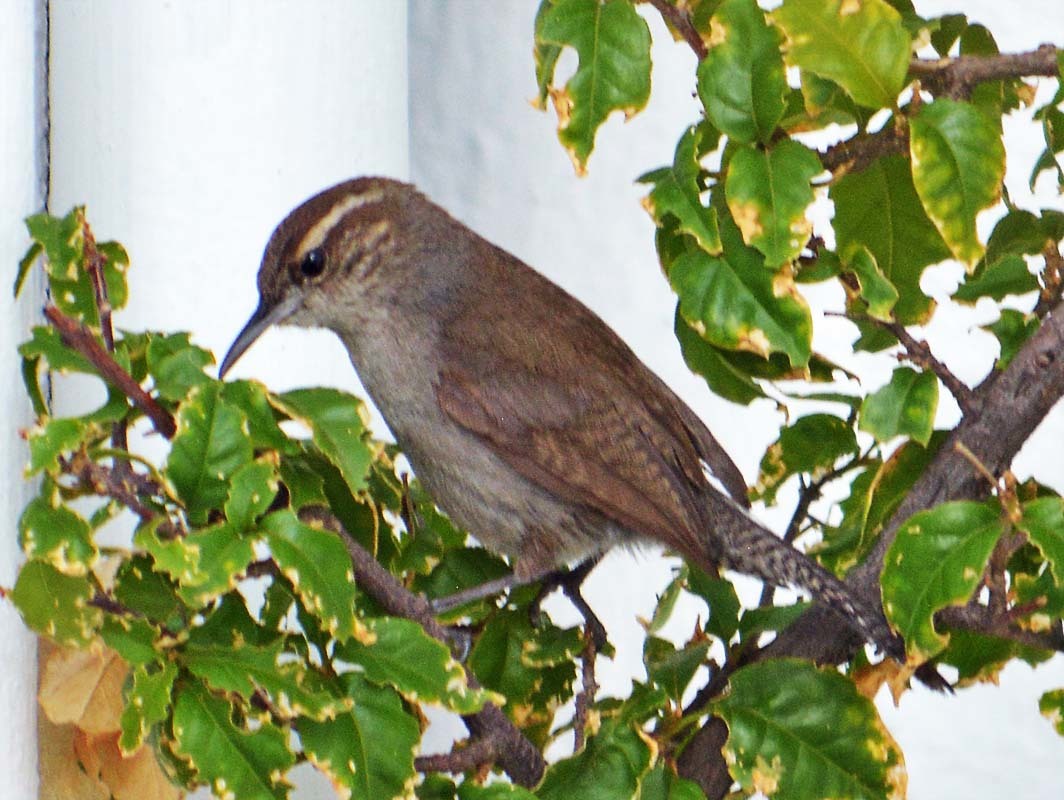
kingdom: Animalia
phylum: Chordata
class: Aves
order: Passeriformes
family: Troglodytidae
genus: Thryomanes
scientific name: Thryomanes bewickii
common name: Bewick's wren
